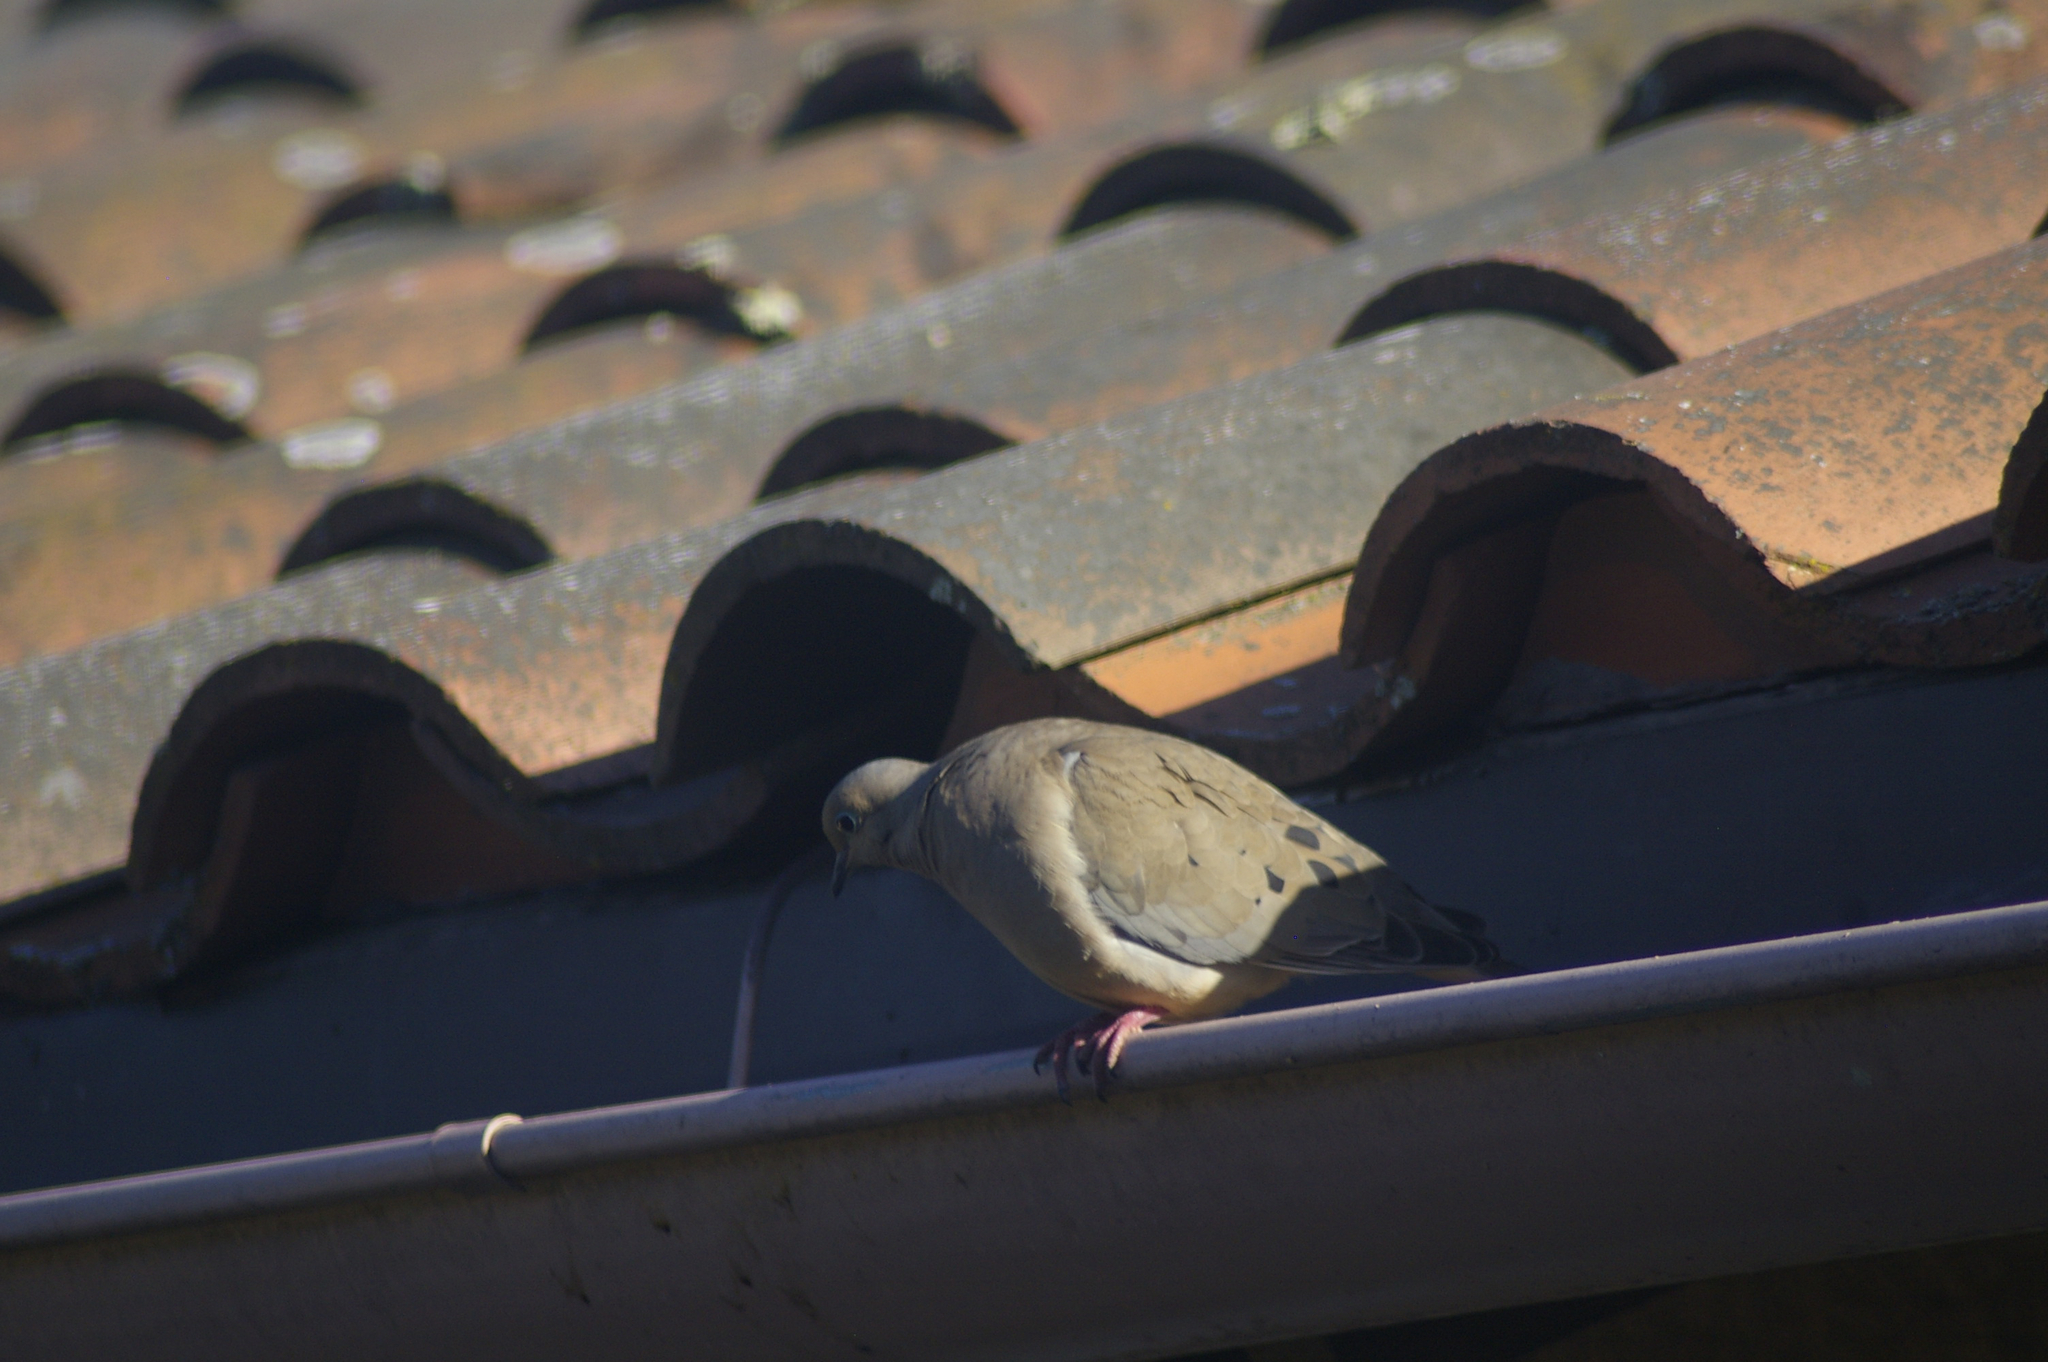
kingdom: Animalia
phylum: Chordata
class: Aves
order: Columbiformes
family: Columbidae
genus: Zenaida
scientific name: Zenaida macroura
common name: Mourning dove
